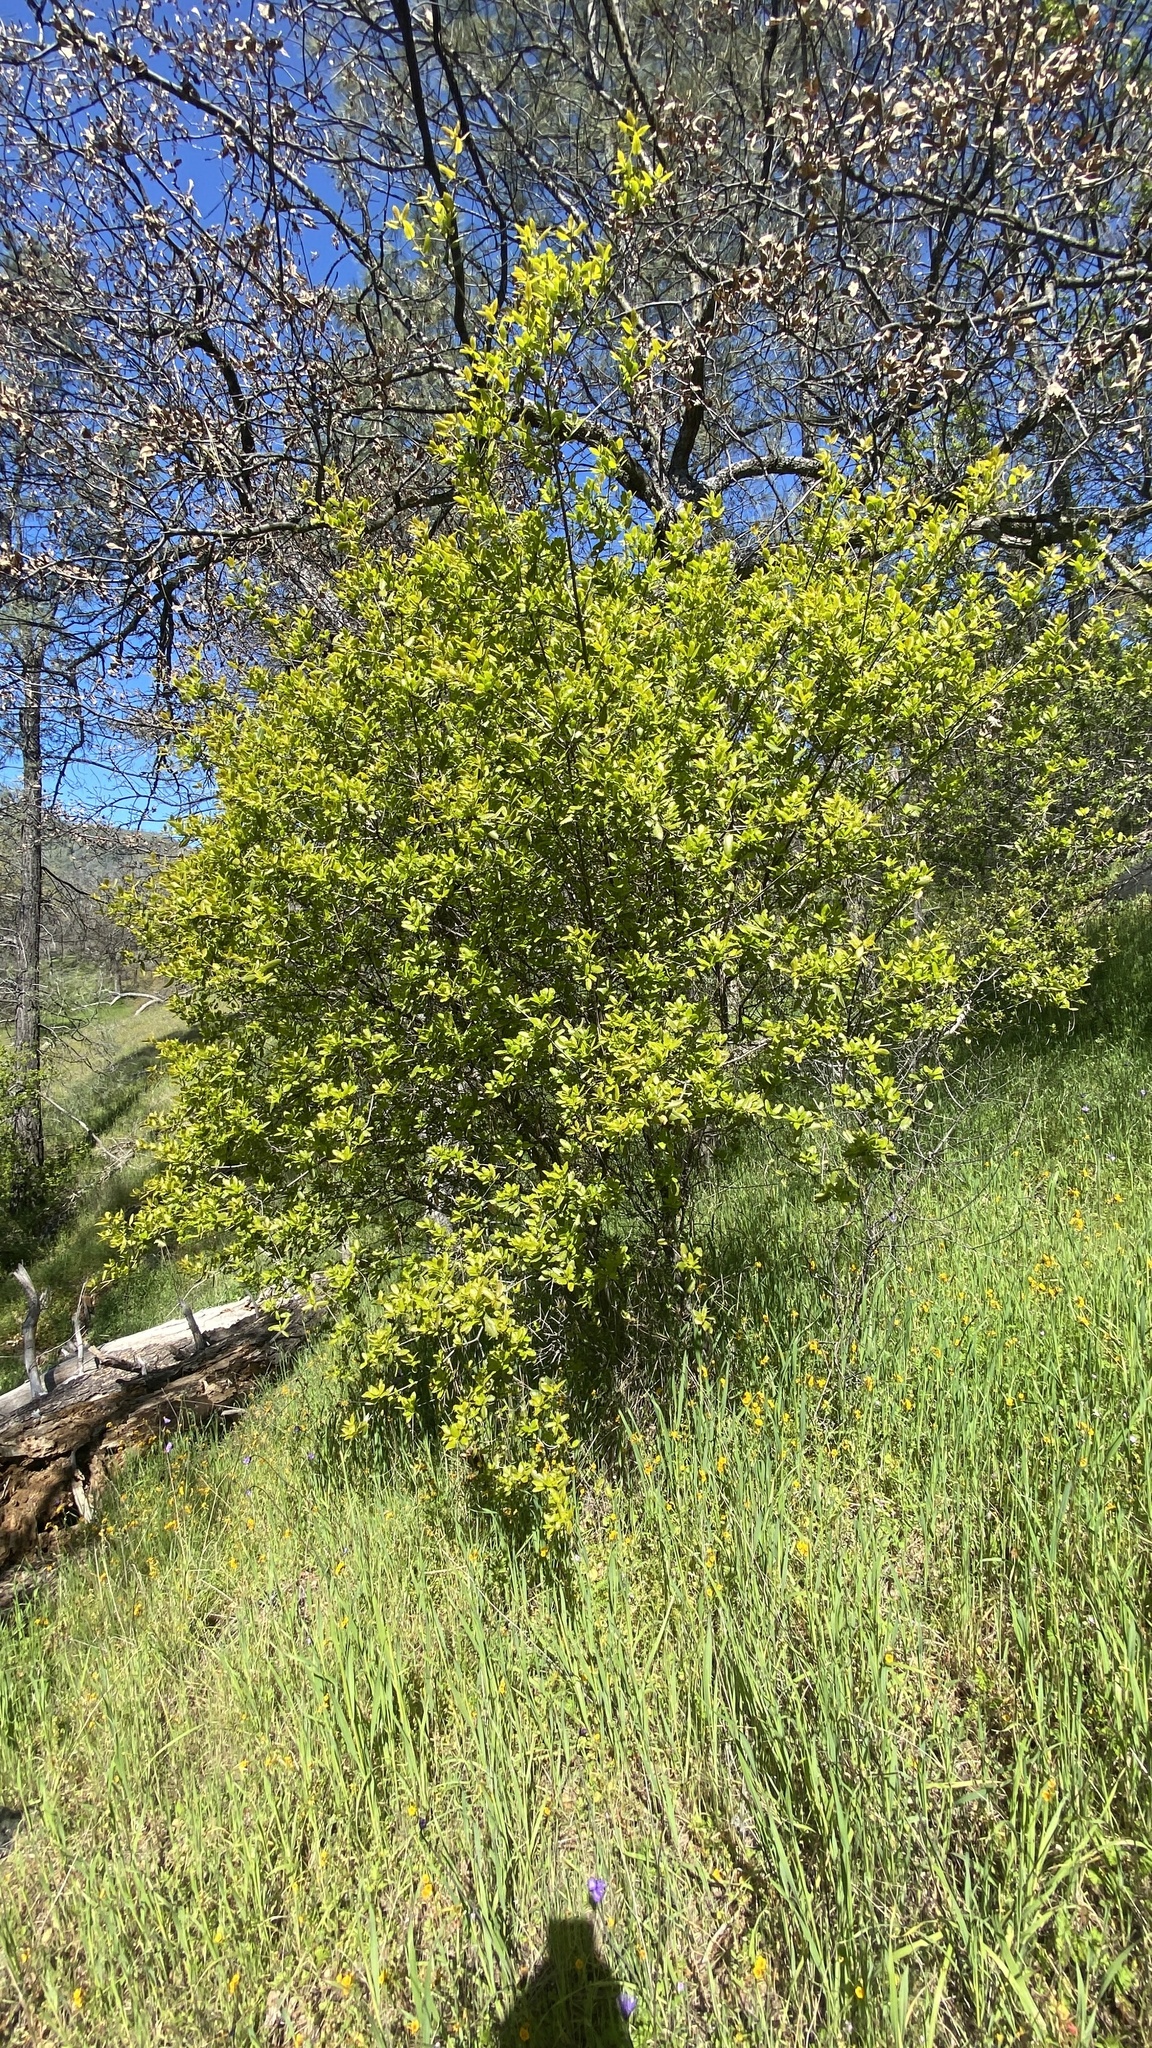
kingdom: Plantae
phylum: Tracheophyta
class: Magnoliopsida
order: Sapindales
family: Sapindaceae
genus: Aesculus
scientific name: Aesculus californica
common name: California buckeye
